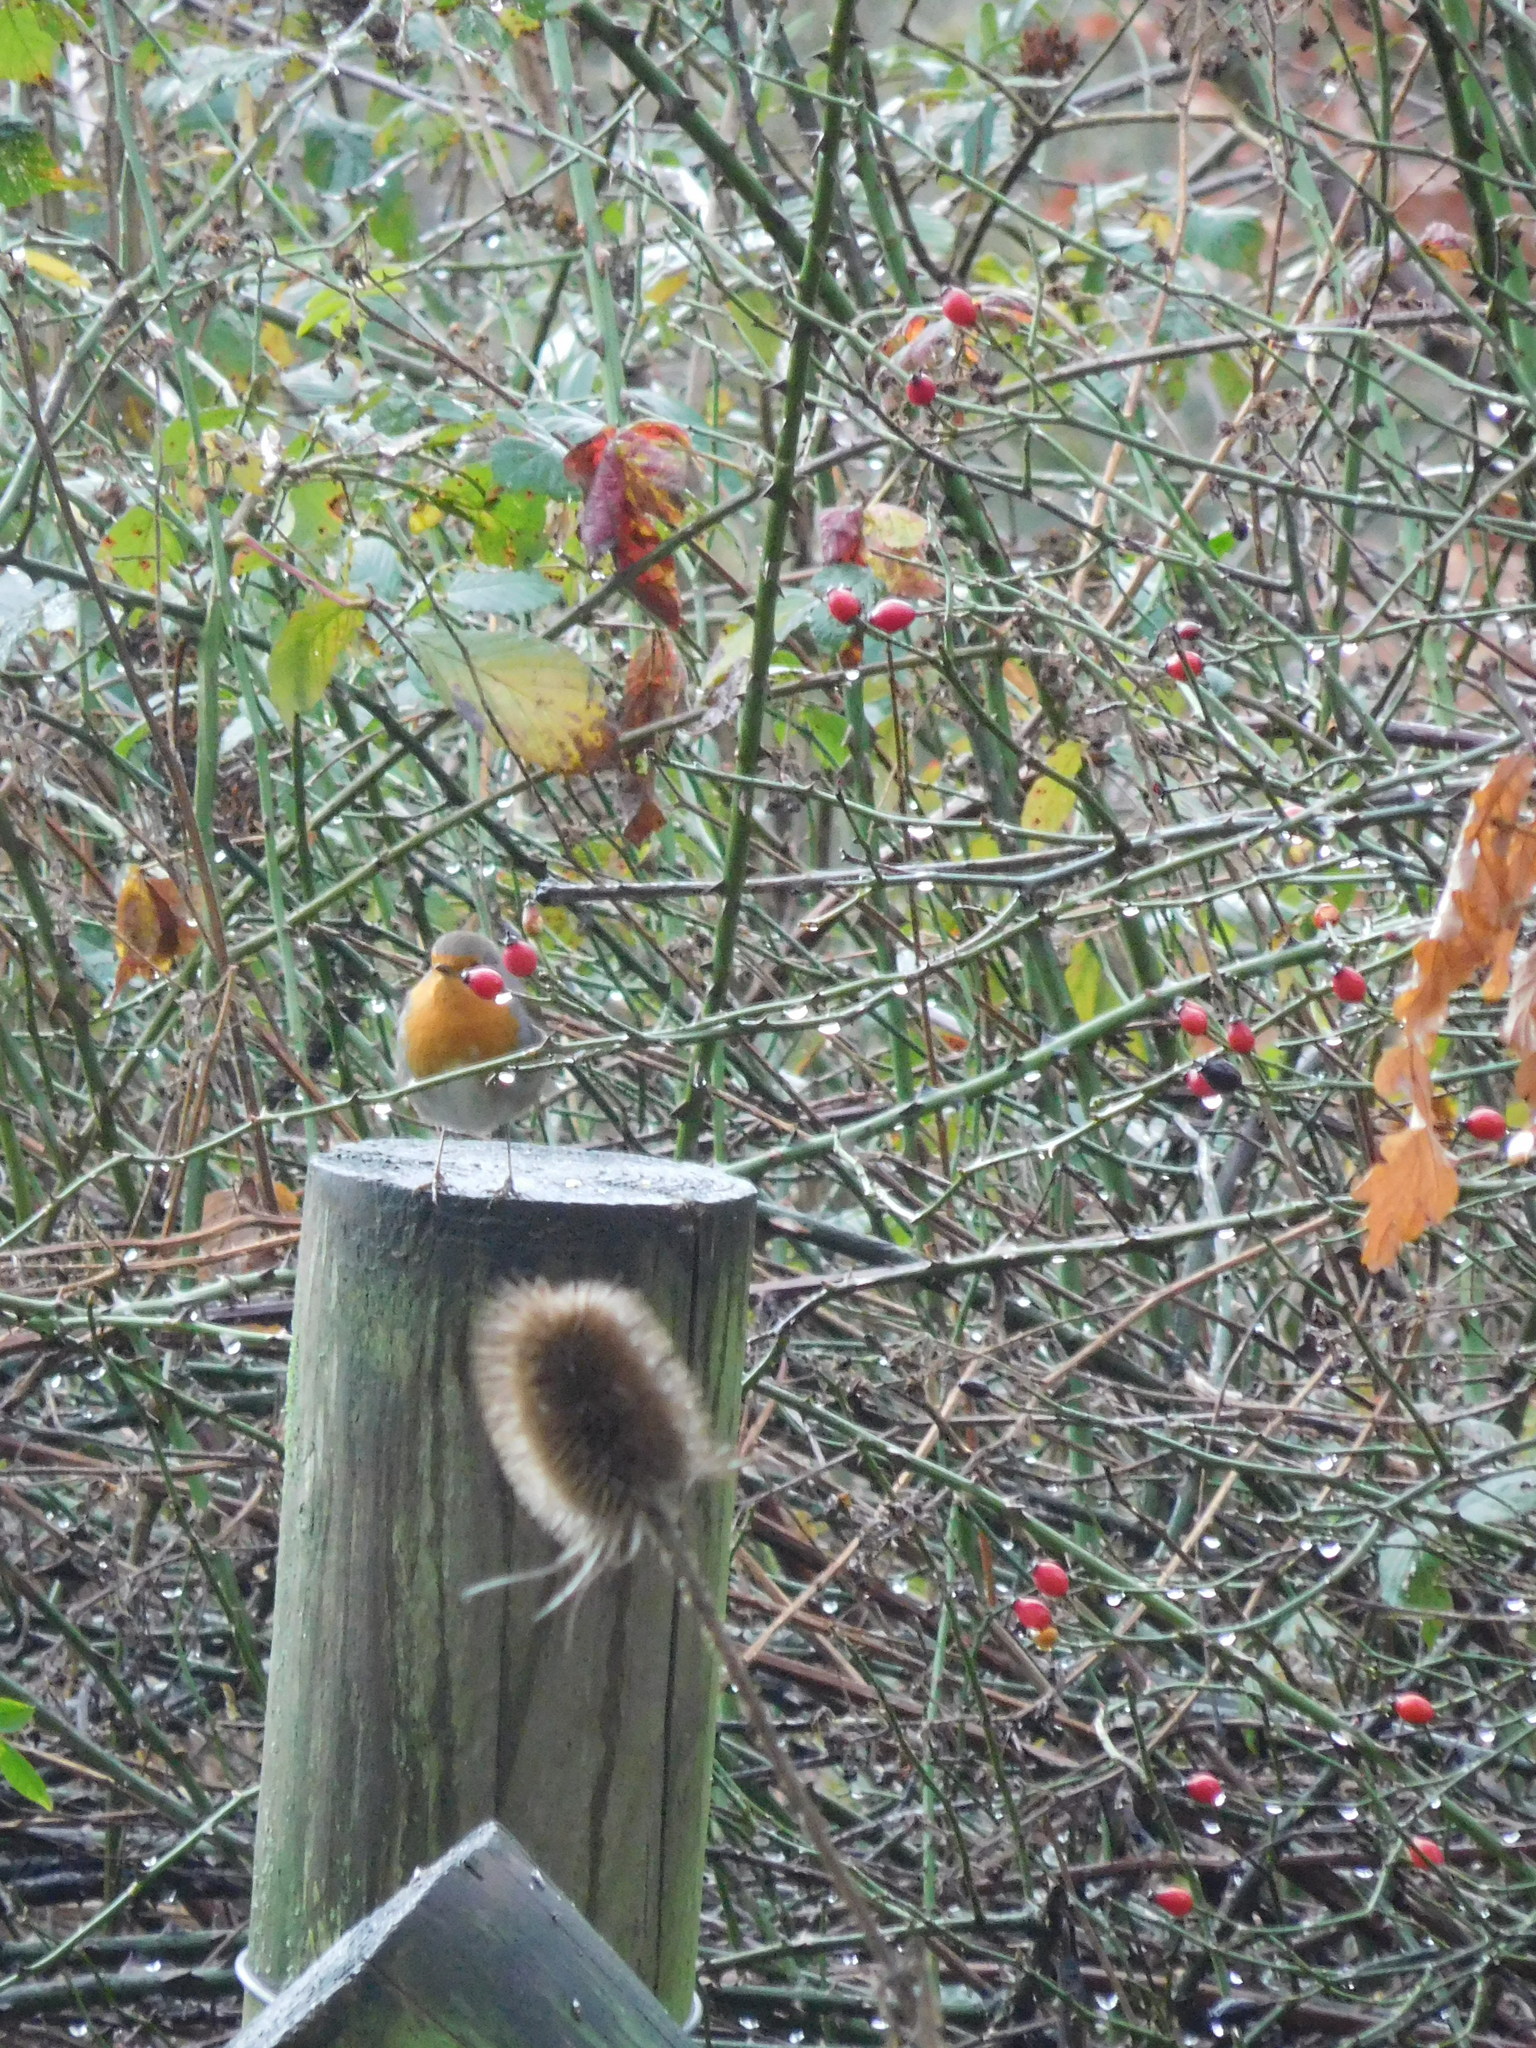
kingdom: Animalia
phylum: Chordata
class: Aves
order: Passeriformes
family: Muscicapidae
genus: Erithacus
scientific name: Erithacus rubecula
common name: European robin
